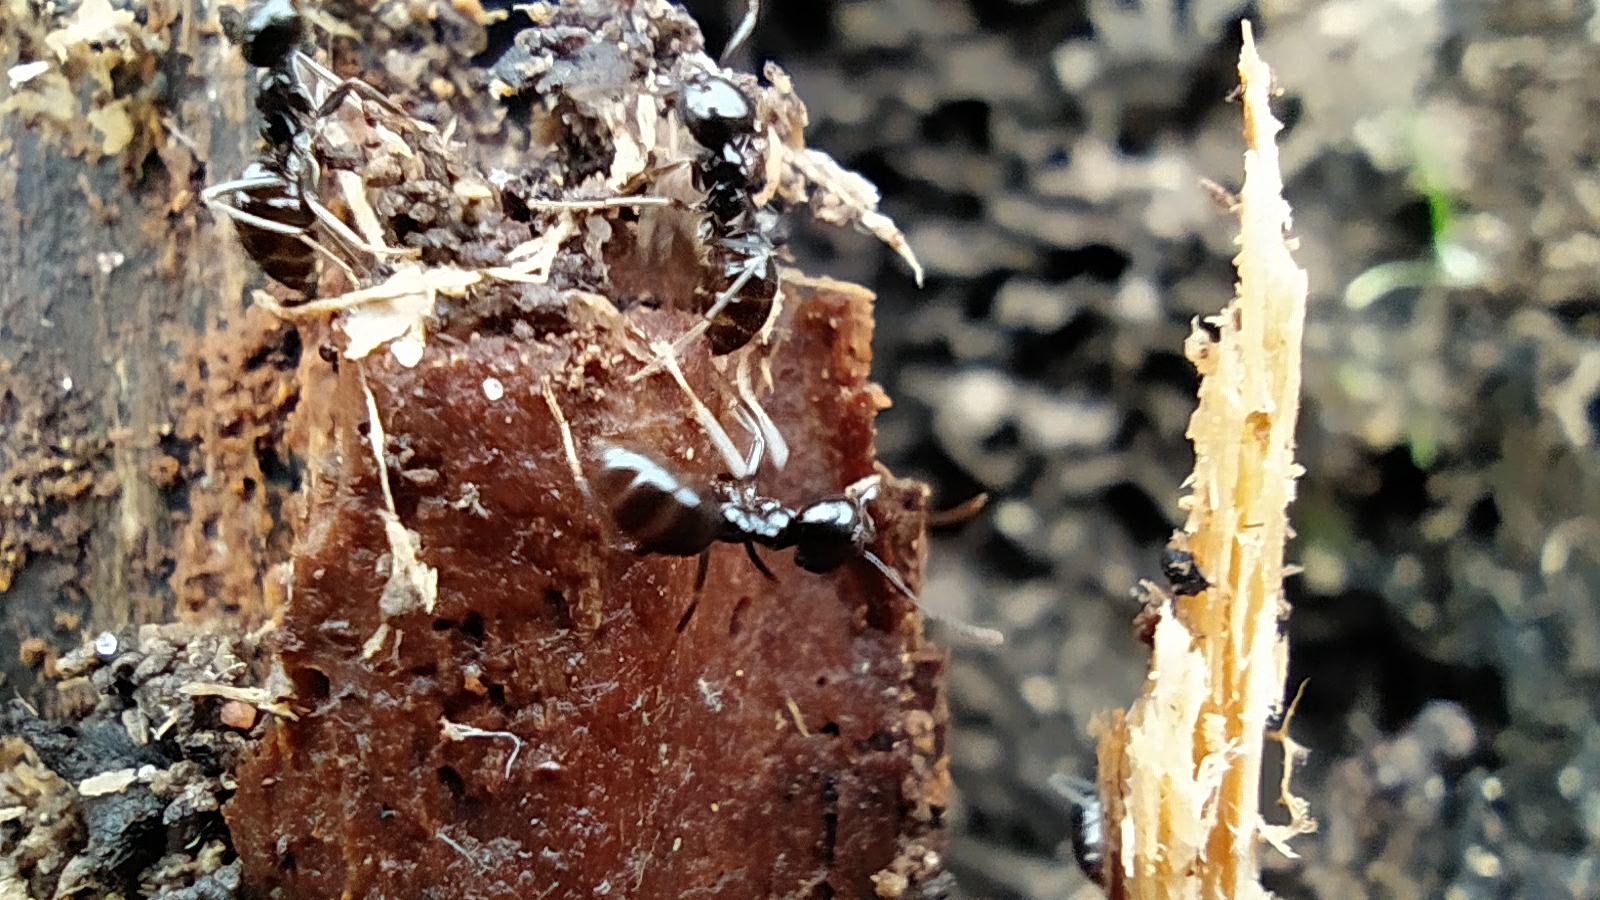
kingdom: Animalia
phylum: Arthropoda
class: Insecta
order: Hymenoptera
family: Formicidae
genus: Lasius
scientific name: Lasius fuliginosus
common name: Jet ant
